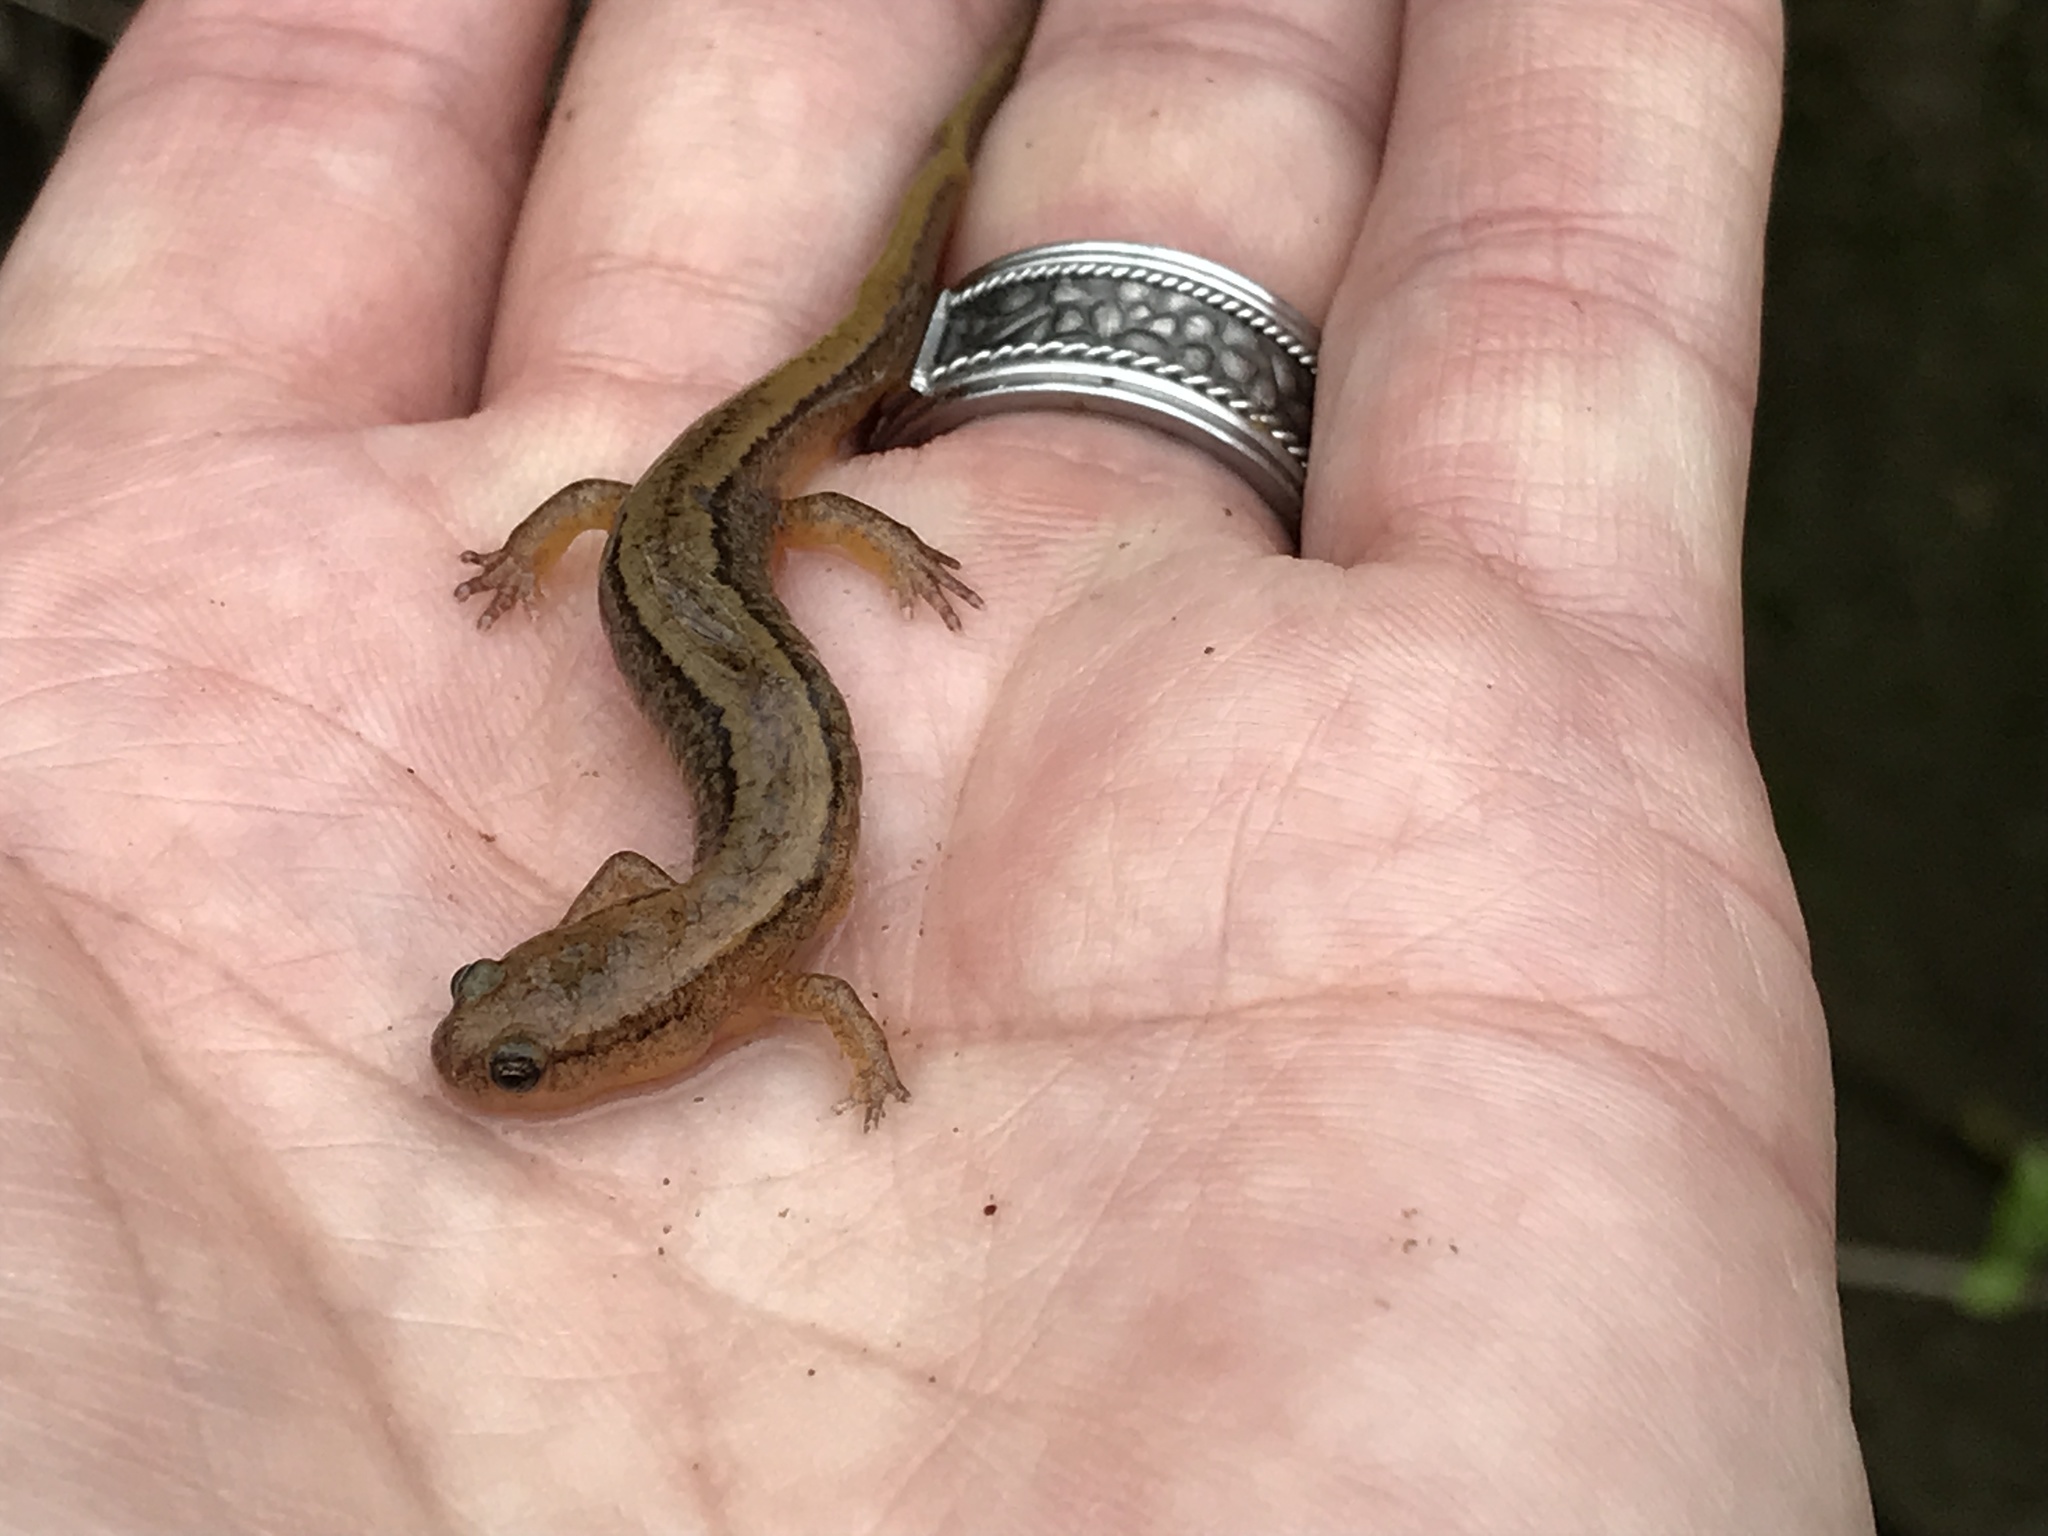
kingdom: Animalia
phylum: Chordata
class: Amphibia
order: Caudata
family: Plethodontidae
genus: Eurycea
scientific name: Eurycea cirrigera
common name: Southern two-lined salamander
